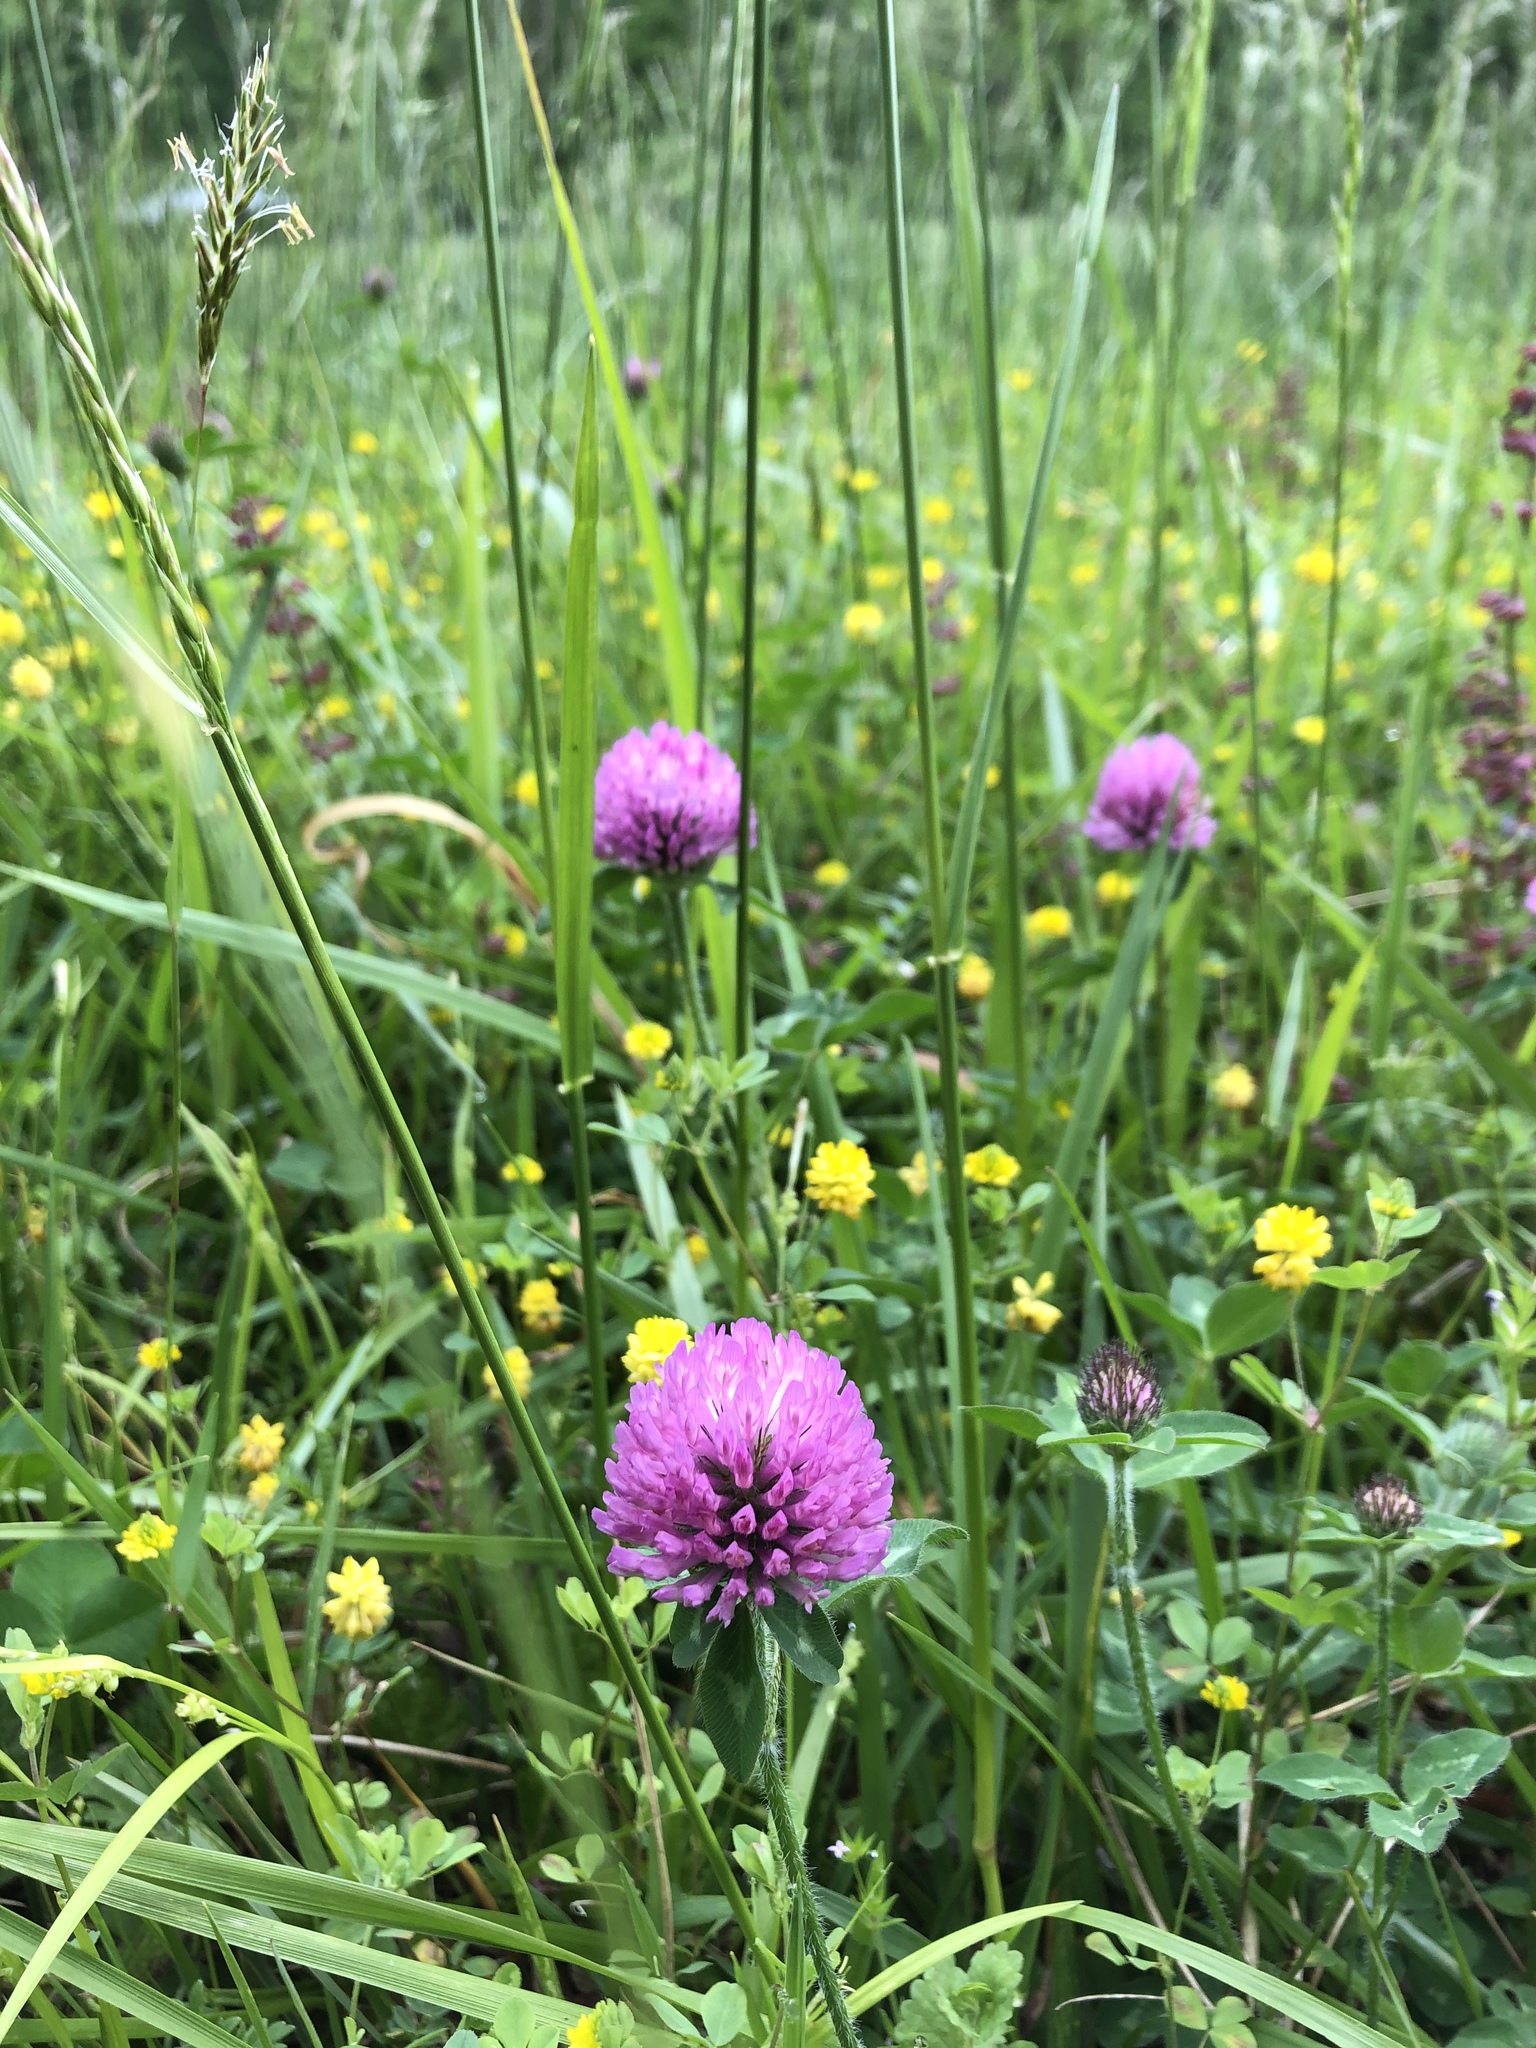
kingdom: Plantae
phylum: Tracheophyta
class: Magnoliopsida
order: Fabales
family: Fabaceae
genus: Trifolium
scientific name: Trifolium pratense
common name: Red clover
